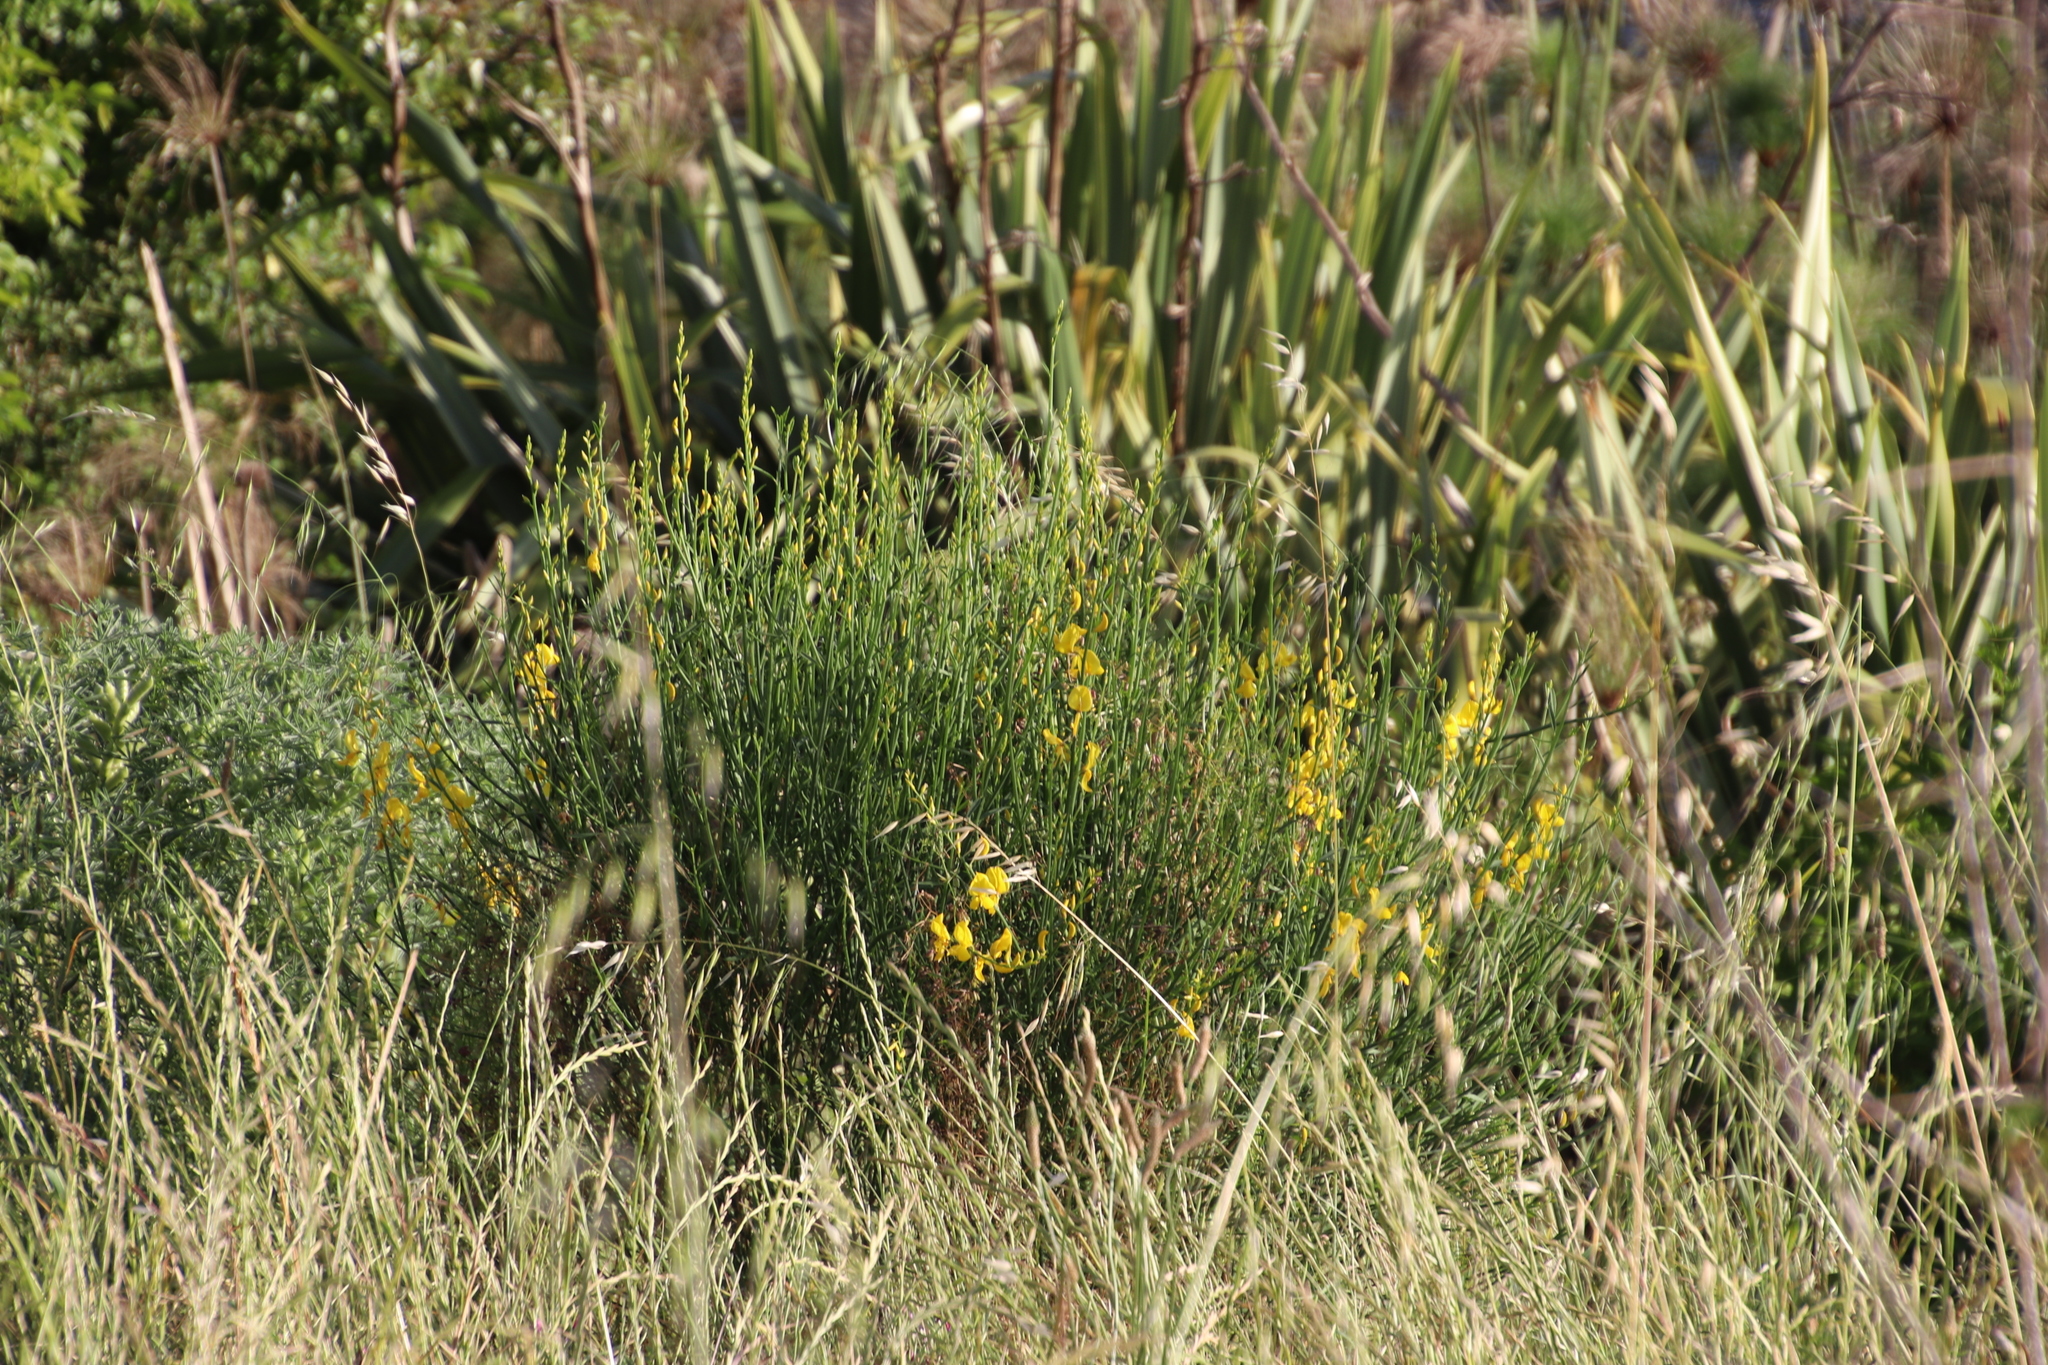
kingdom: Plantae
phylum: Tracheophyta
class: Magnoliopsida
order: Fabales
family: Fabaceae
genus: Spartium
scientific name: Spartium junceum
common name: Spanish broom
